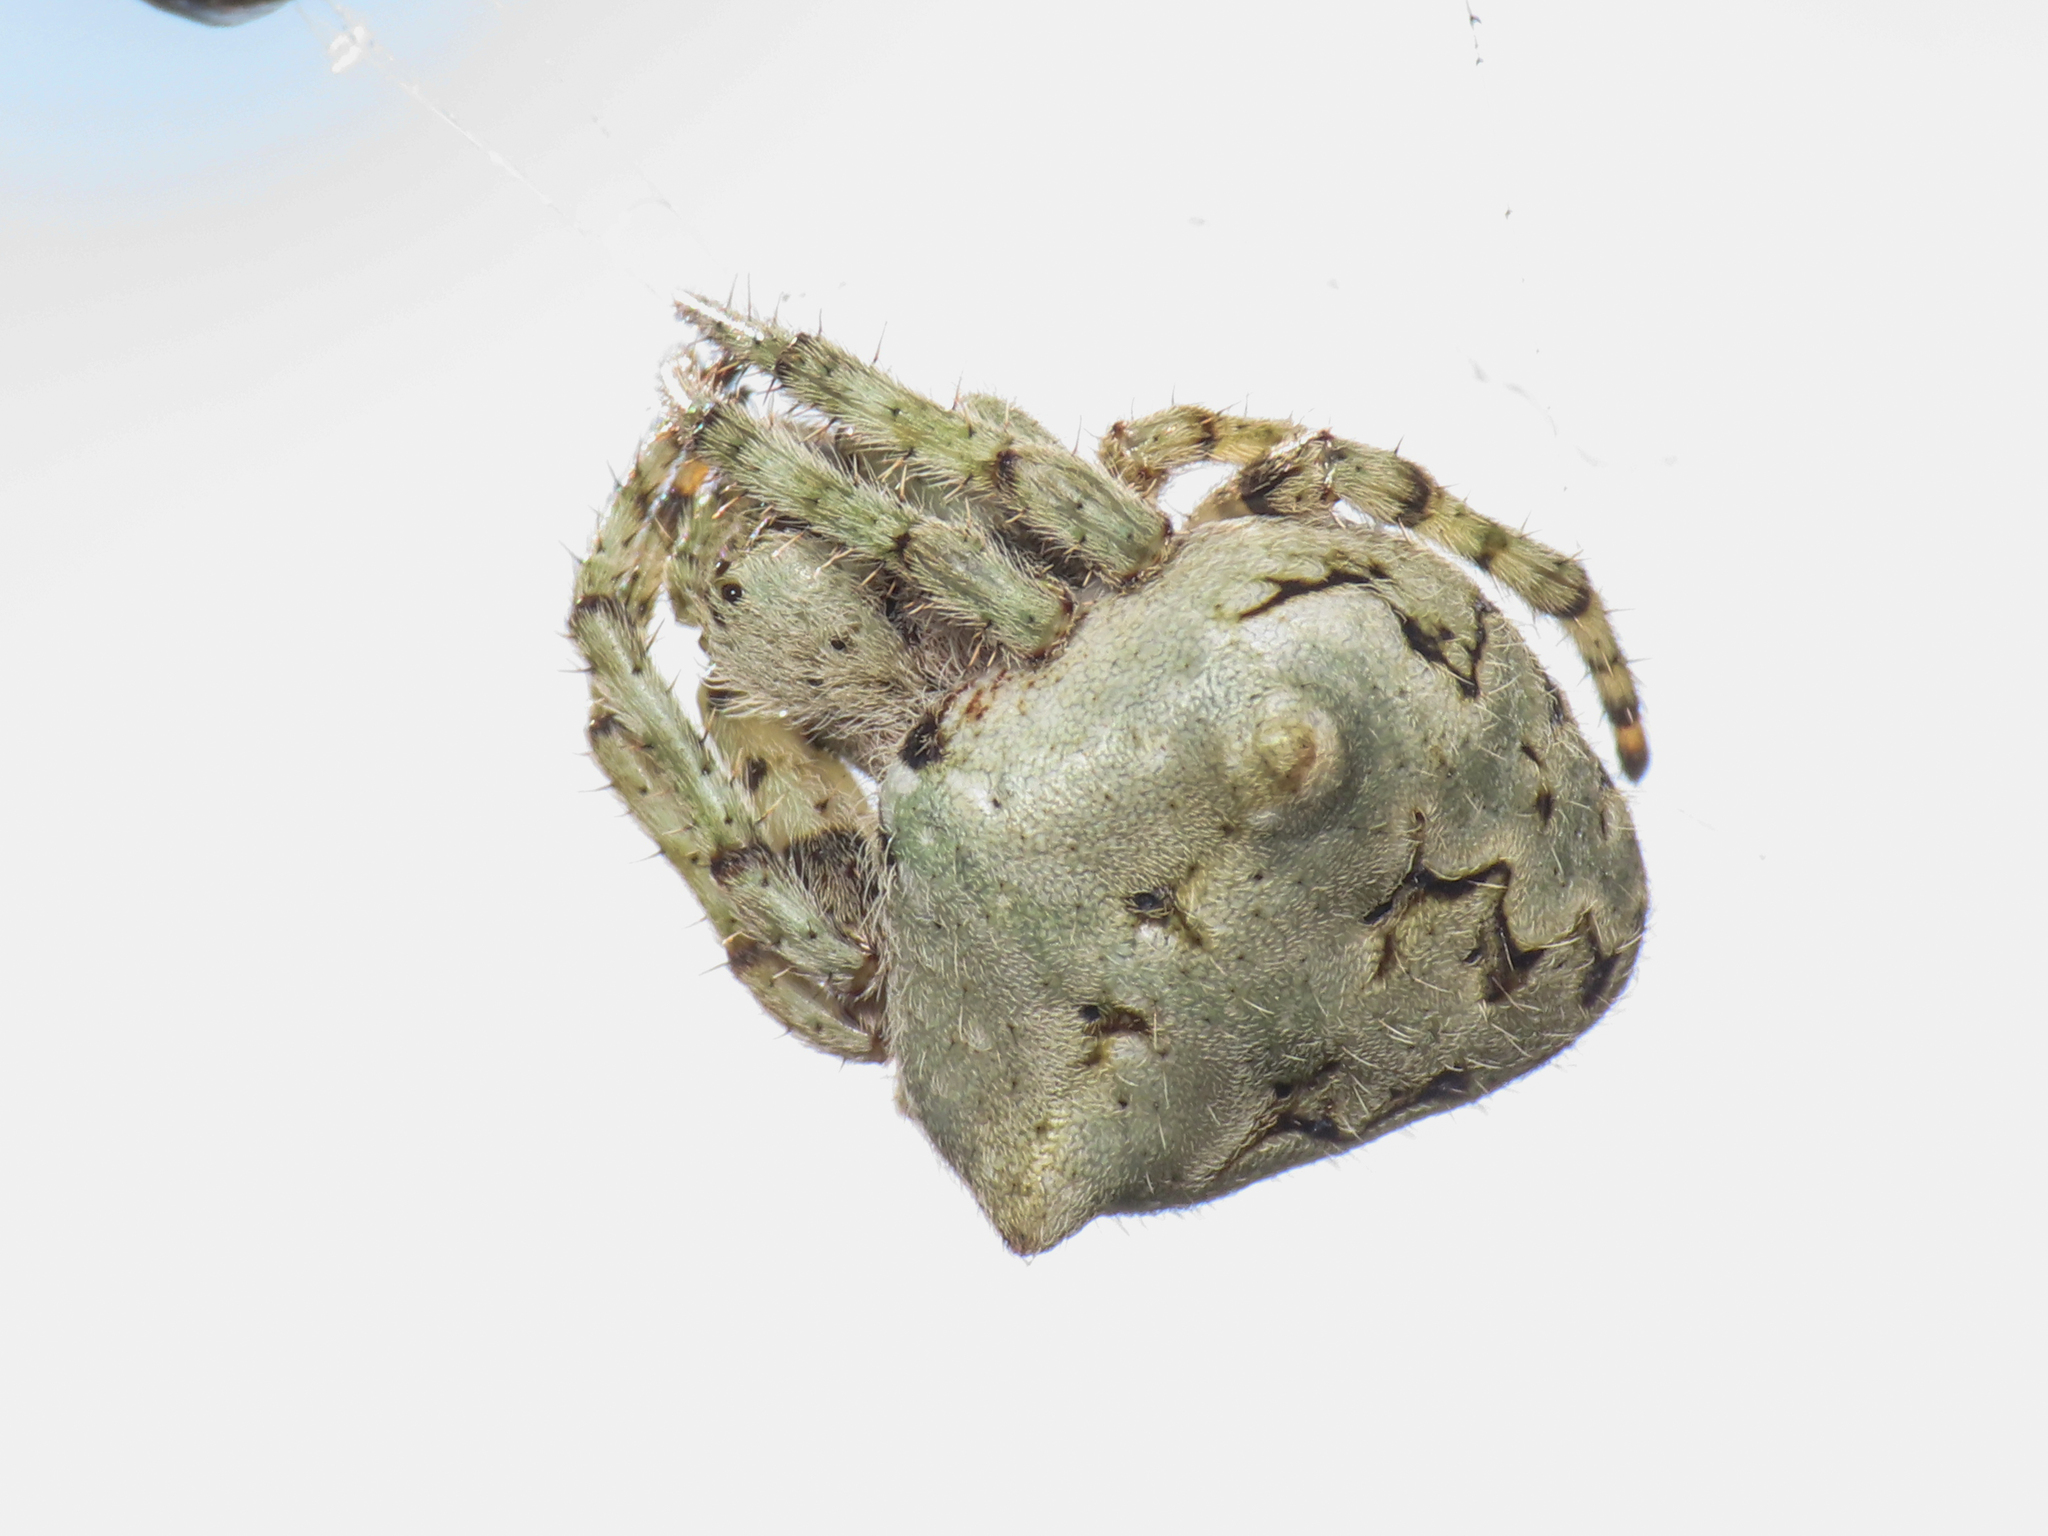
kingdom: Animalia
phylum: Arthropoda
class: Arachnida
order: Araneae
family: Araneidae
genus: Araneus
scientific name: Araneus circe
